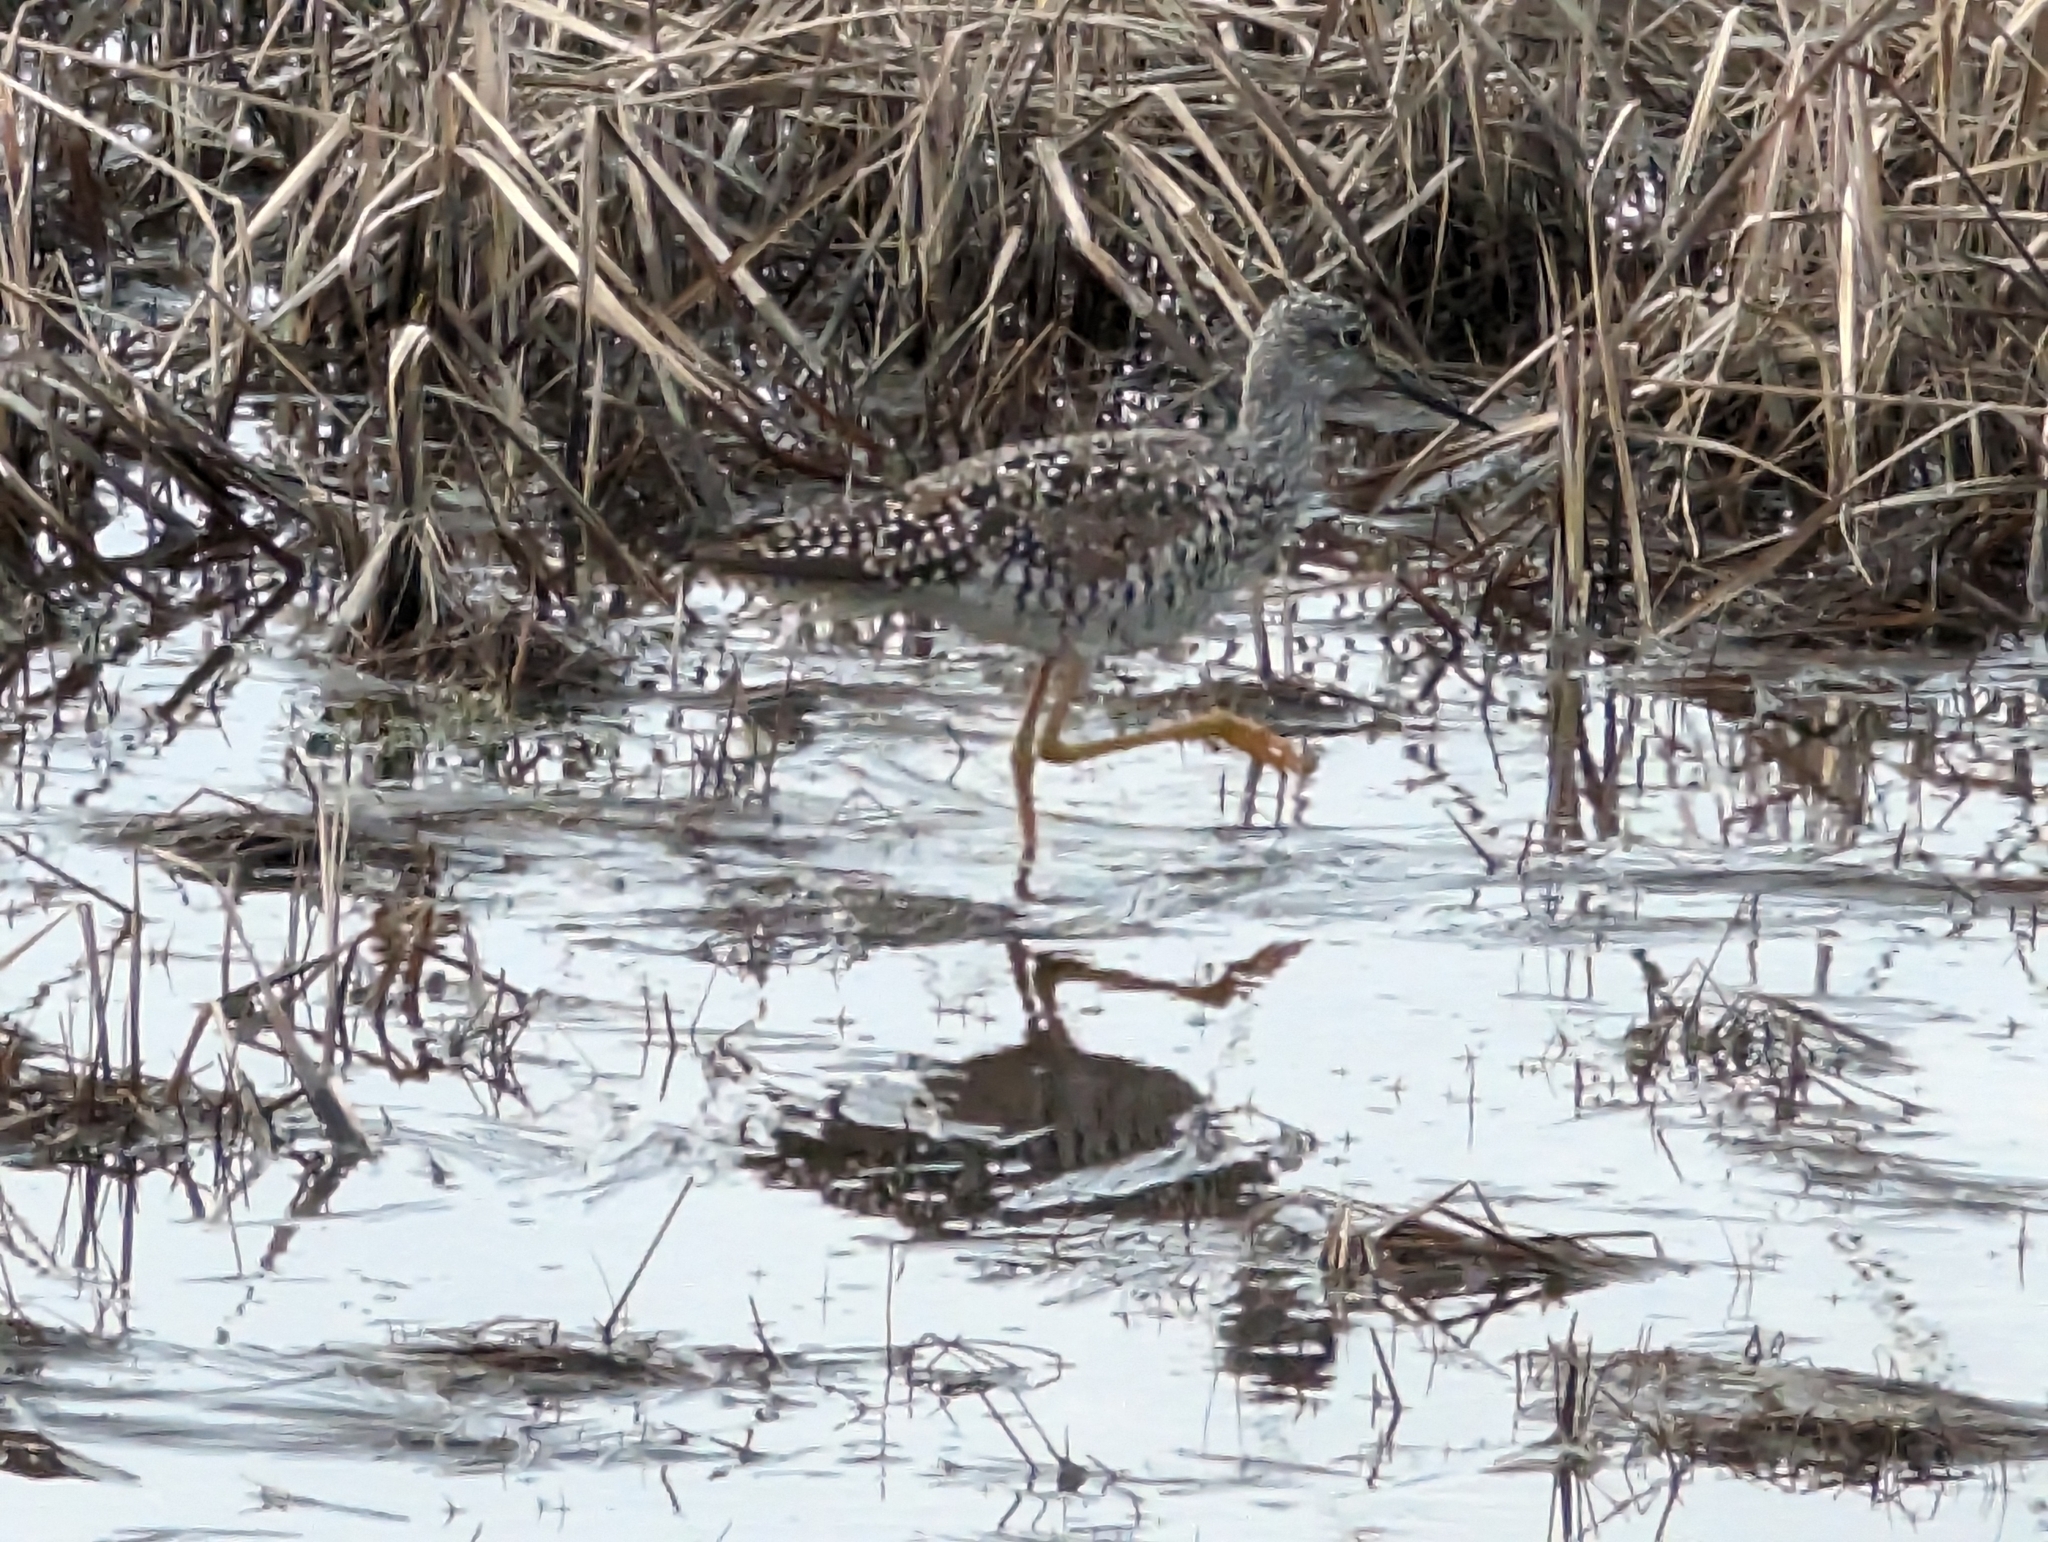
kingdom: Animalia
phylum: Chordata
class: Aves
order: Charadriiformes
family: Scolopacidae
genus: Tringa
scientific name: Tringa melanoleuca
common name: Greater yellowlegs
